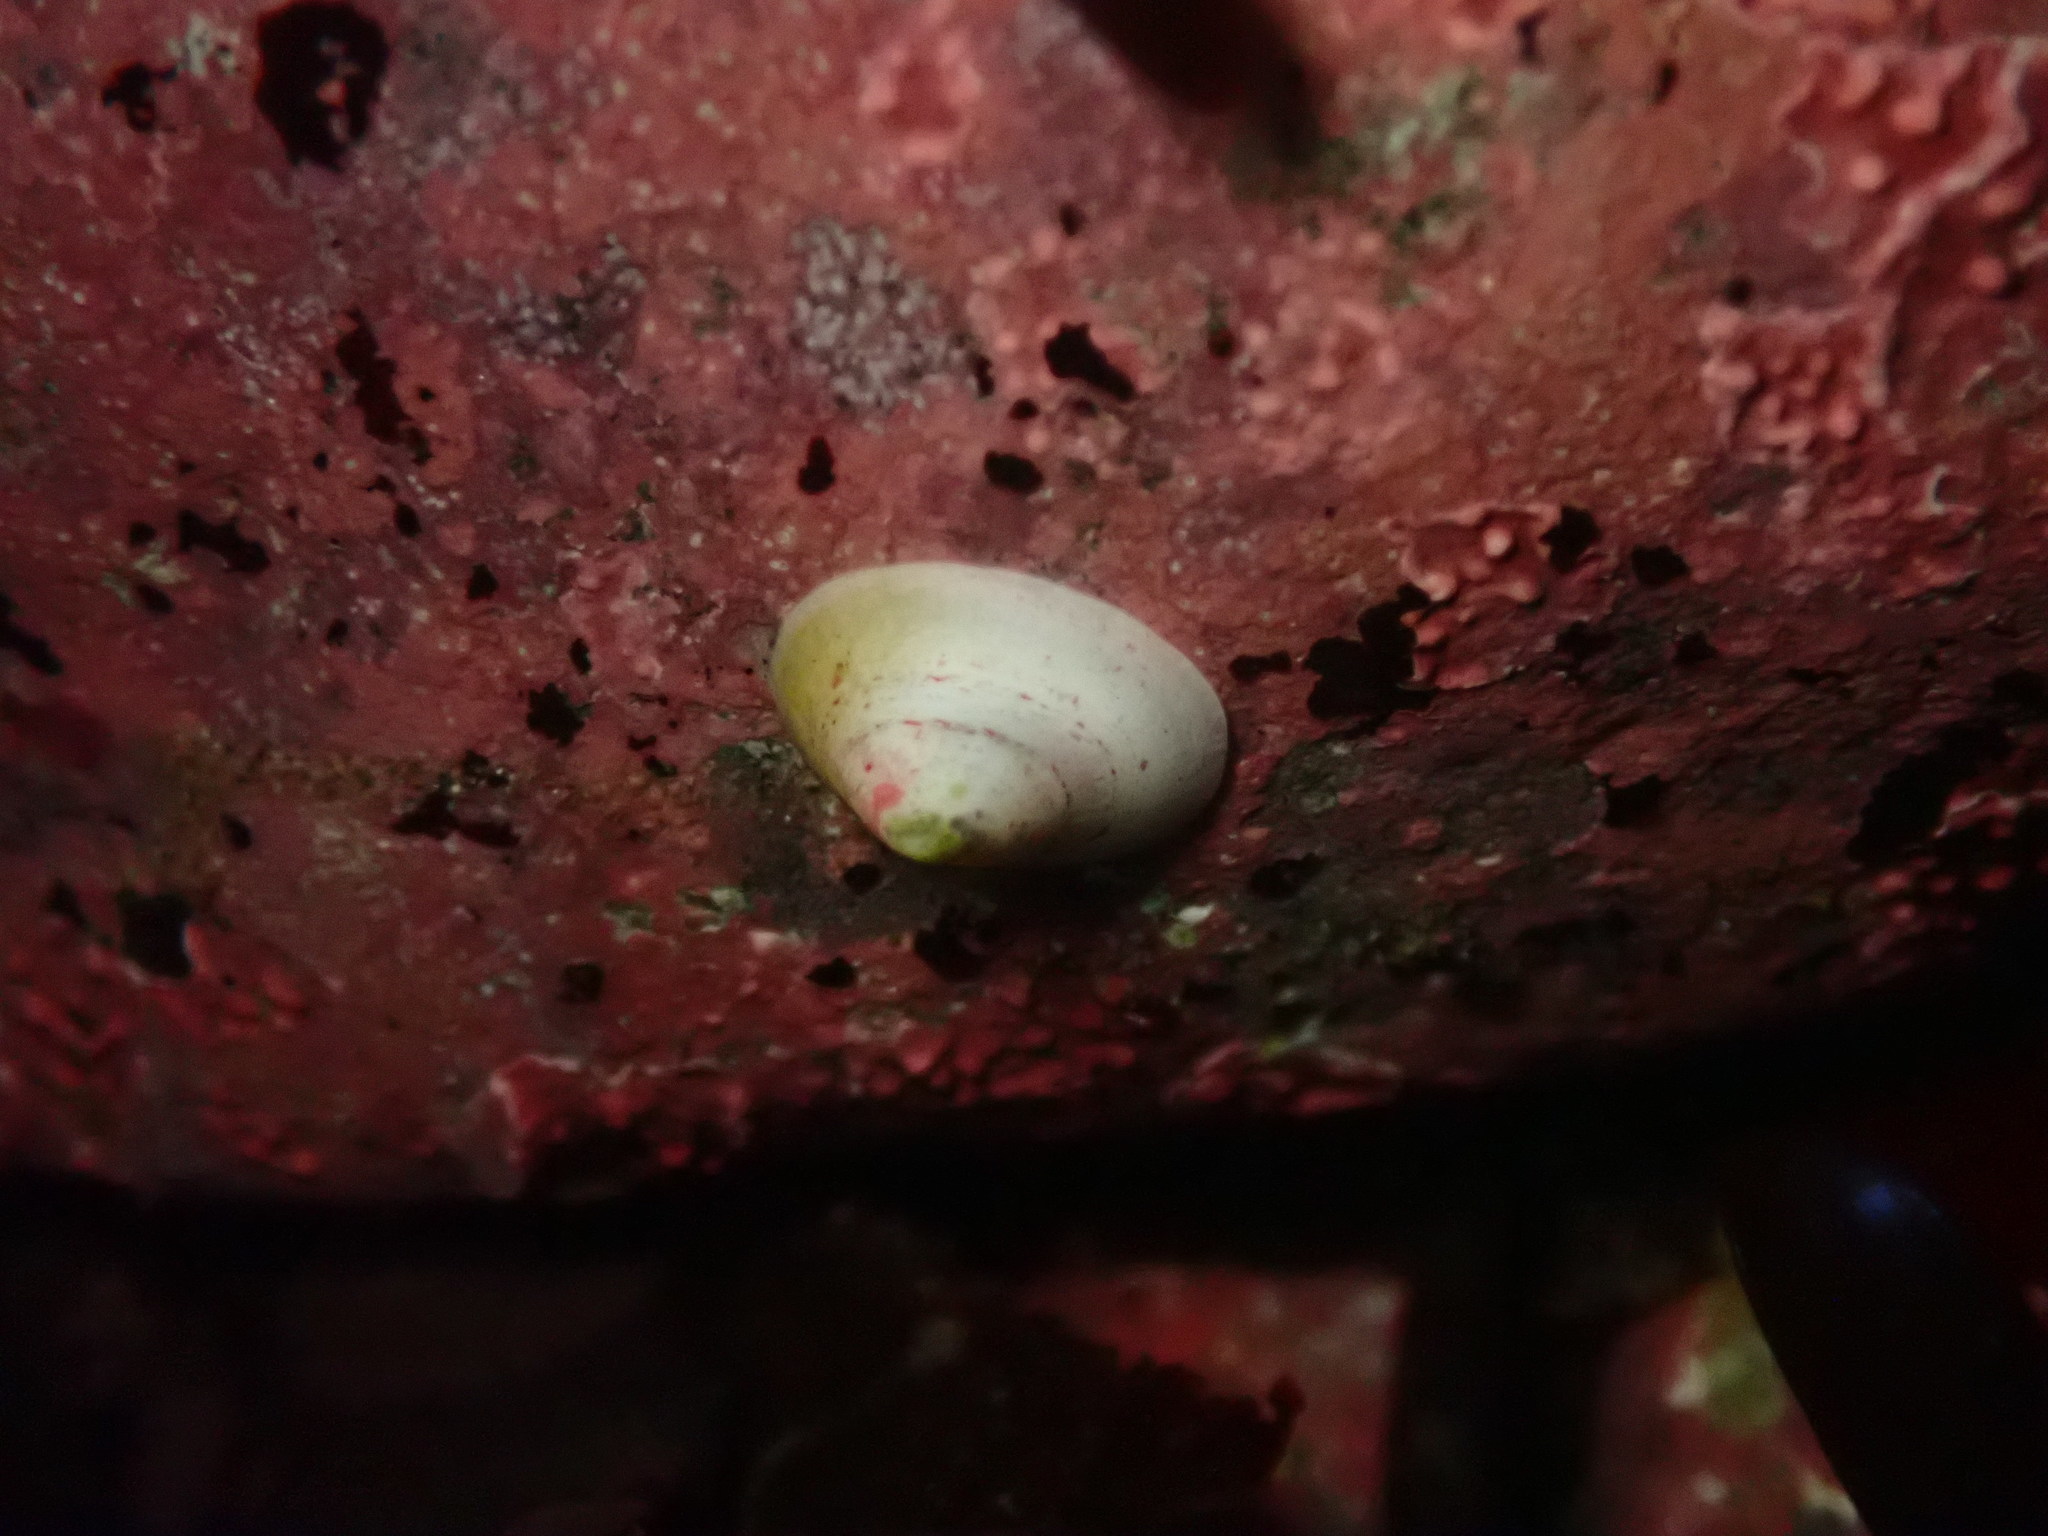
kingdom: Animalia
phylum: Mollusca
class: Gastropoda
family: Acmaeidae
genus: Acmaea
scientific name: Acmaea mitra
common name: Pacific white cap limpet
